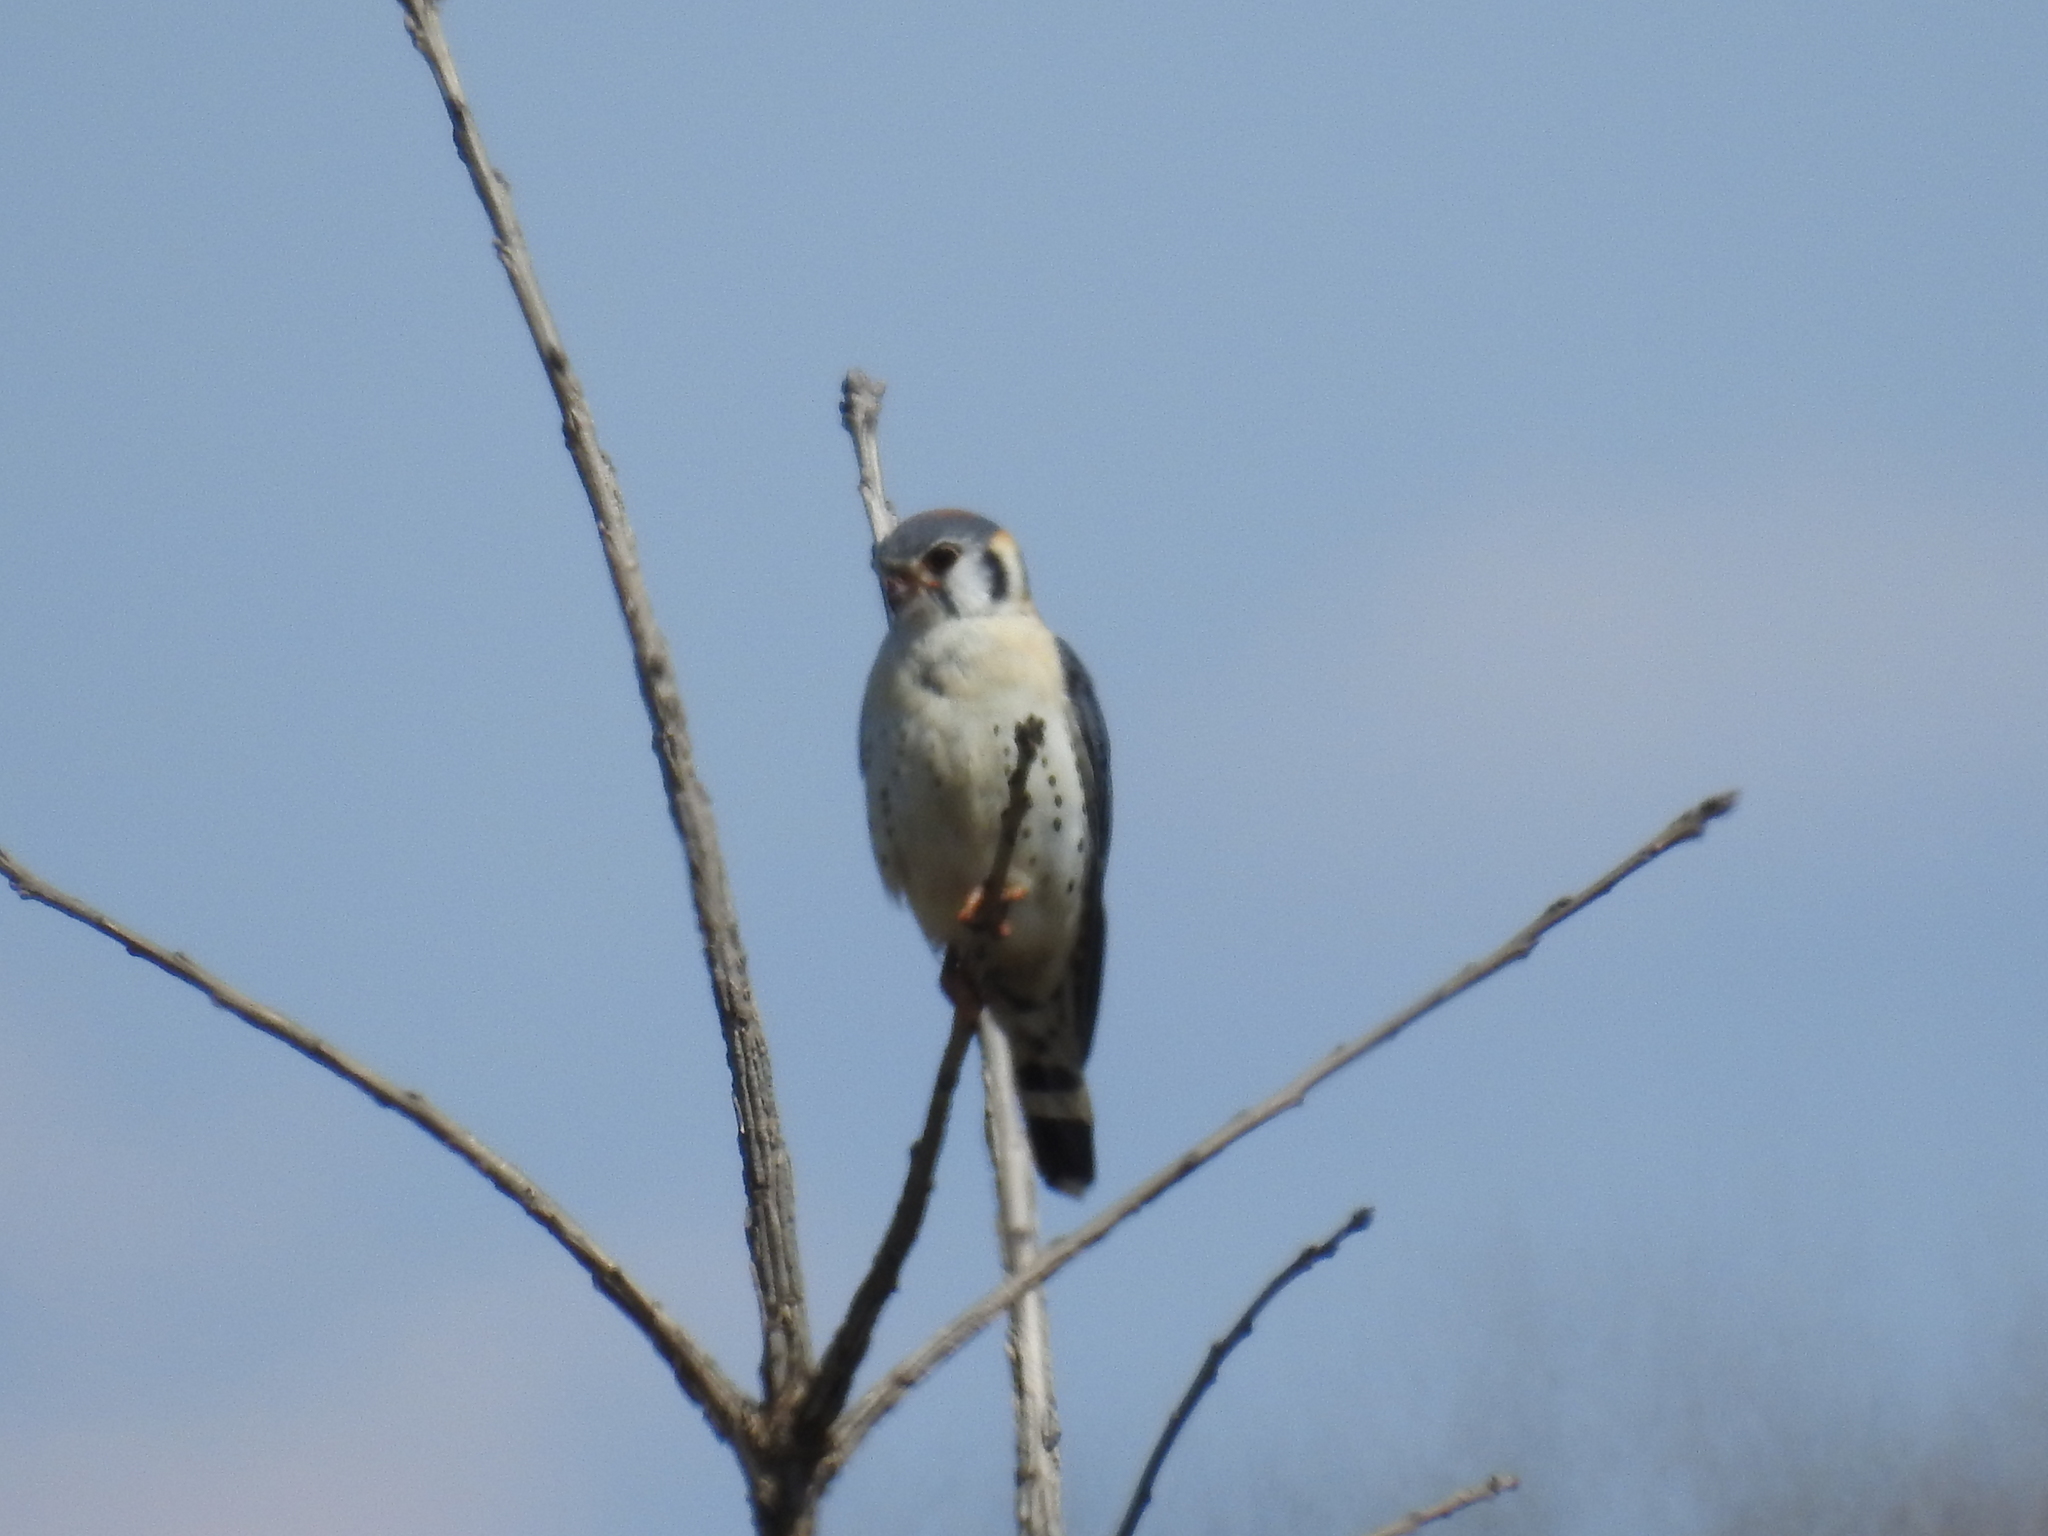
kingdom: Animalia
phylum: Chordata
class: Aves
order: Falconiformes
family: Falconidae
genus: Falco
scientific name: Falco sparverius
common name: American kestrel
